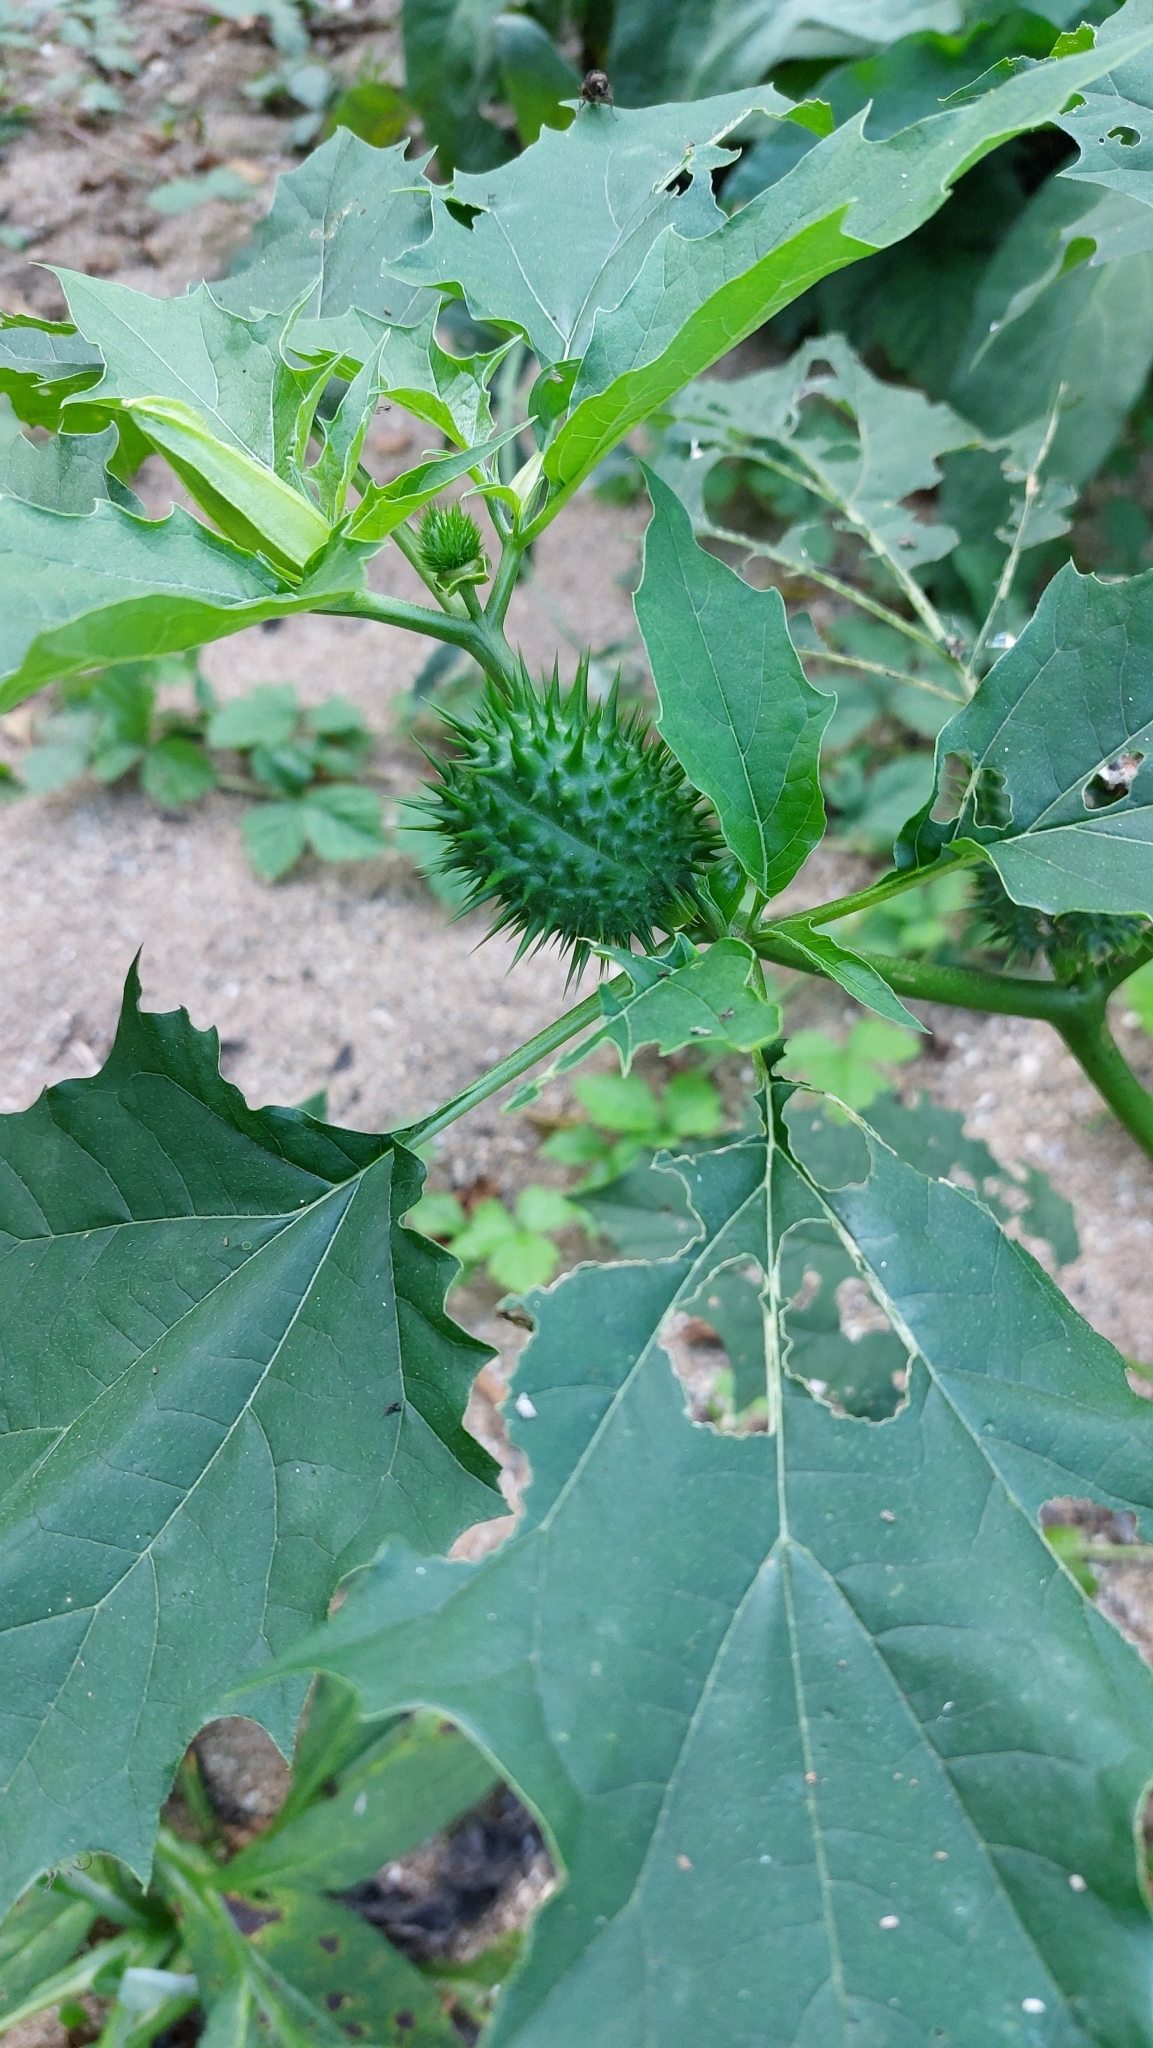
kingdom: Plantae
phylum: Tracheophyta
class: Magnoliopsida
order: Solanales
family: Solanaceae
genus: Datura
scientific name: Datura stramonium
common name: Thorn-apple
